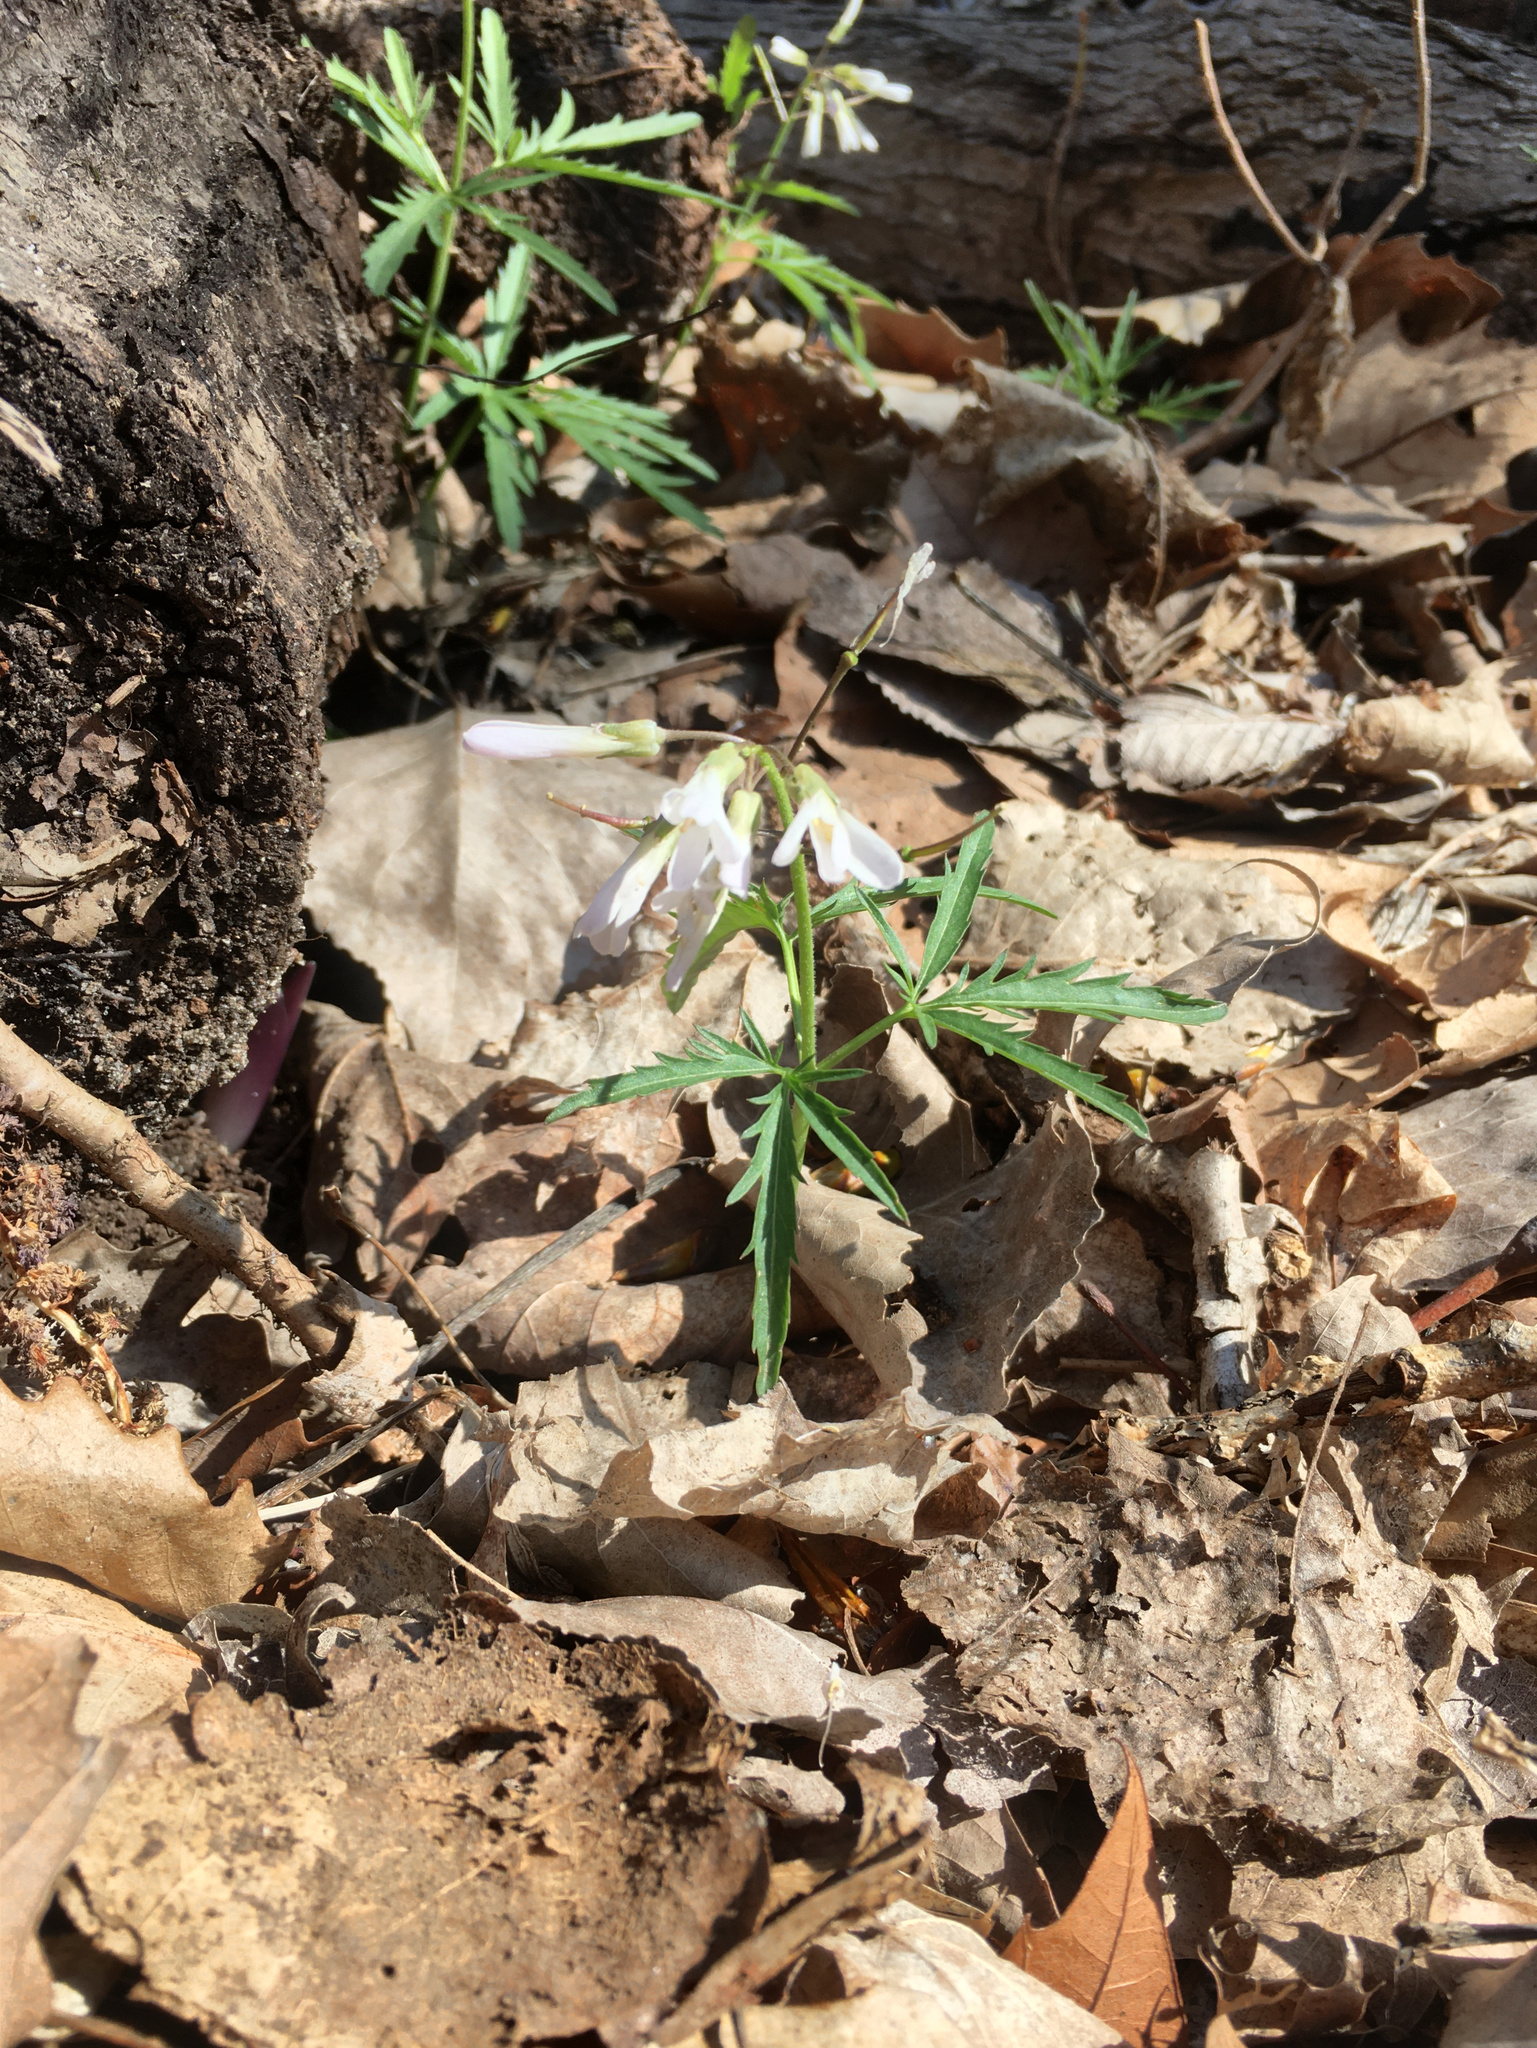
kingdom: Plantae
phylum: Tracheophyta
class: Magnoliopsida
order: Brassicales
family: Brassicaceae
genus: Cardamine
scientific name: Cardamine concatenata
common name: Cut-leaf toothcup
